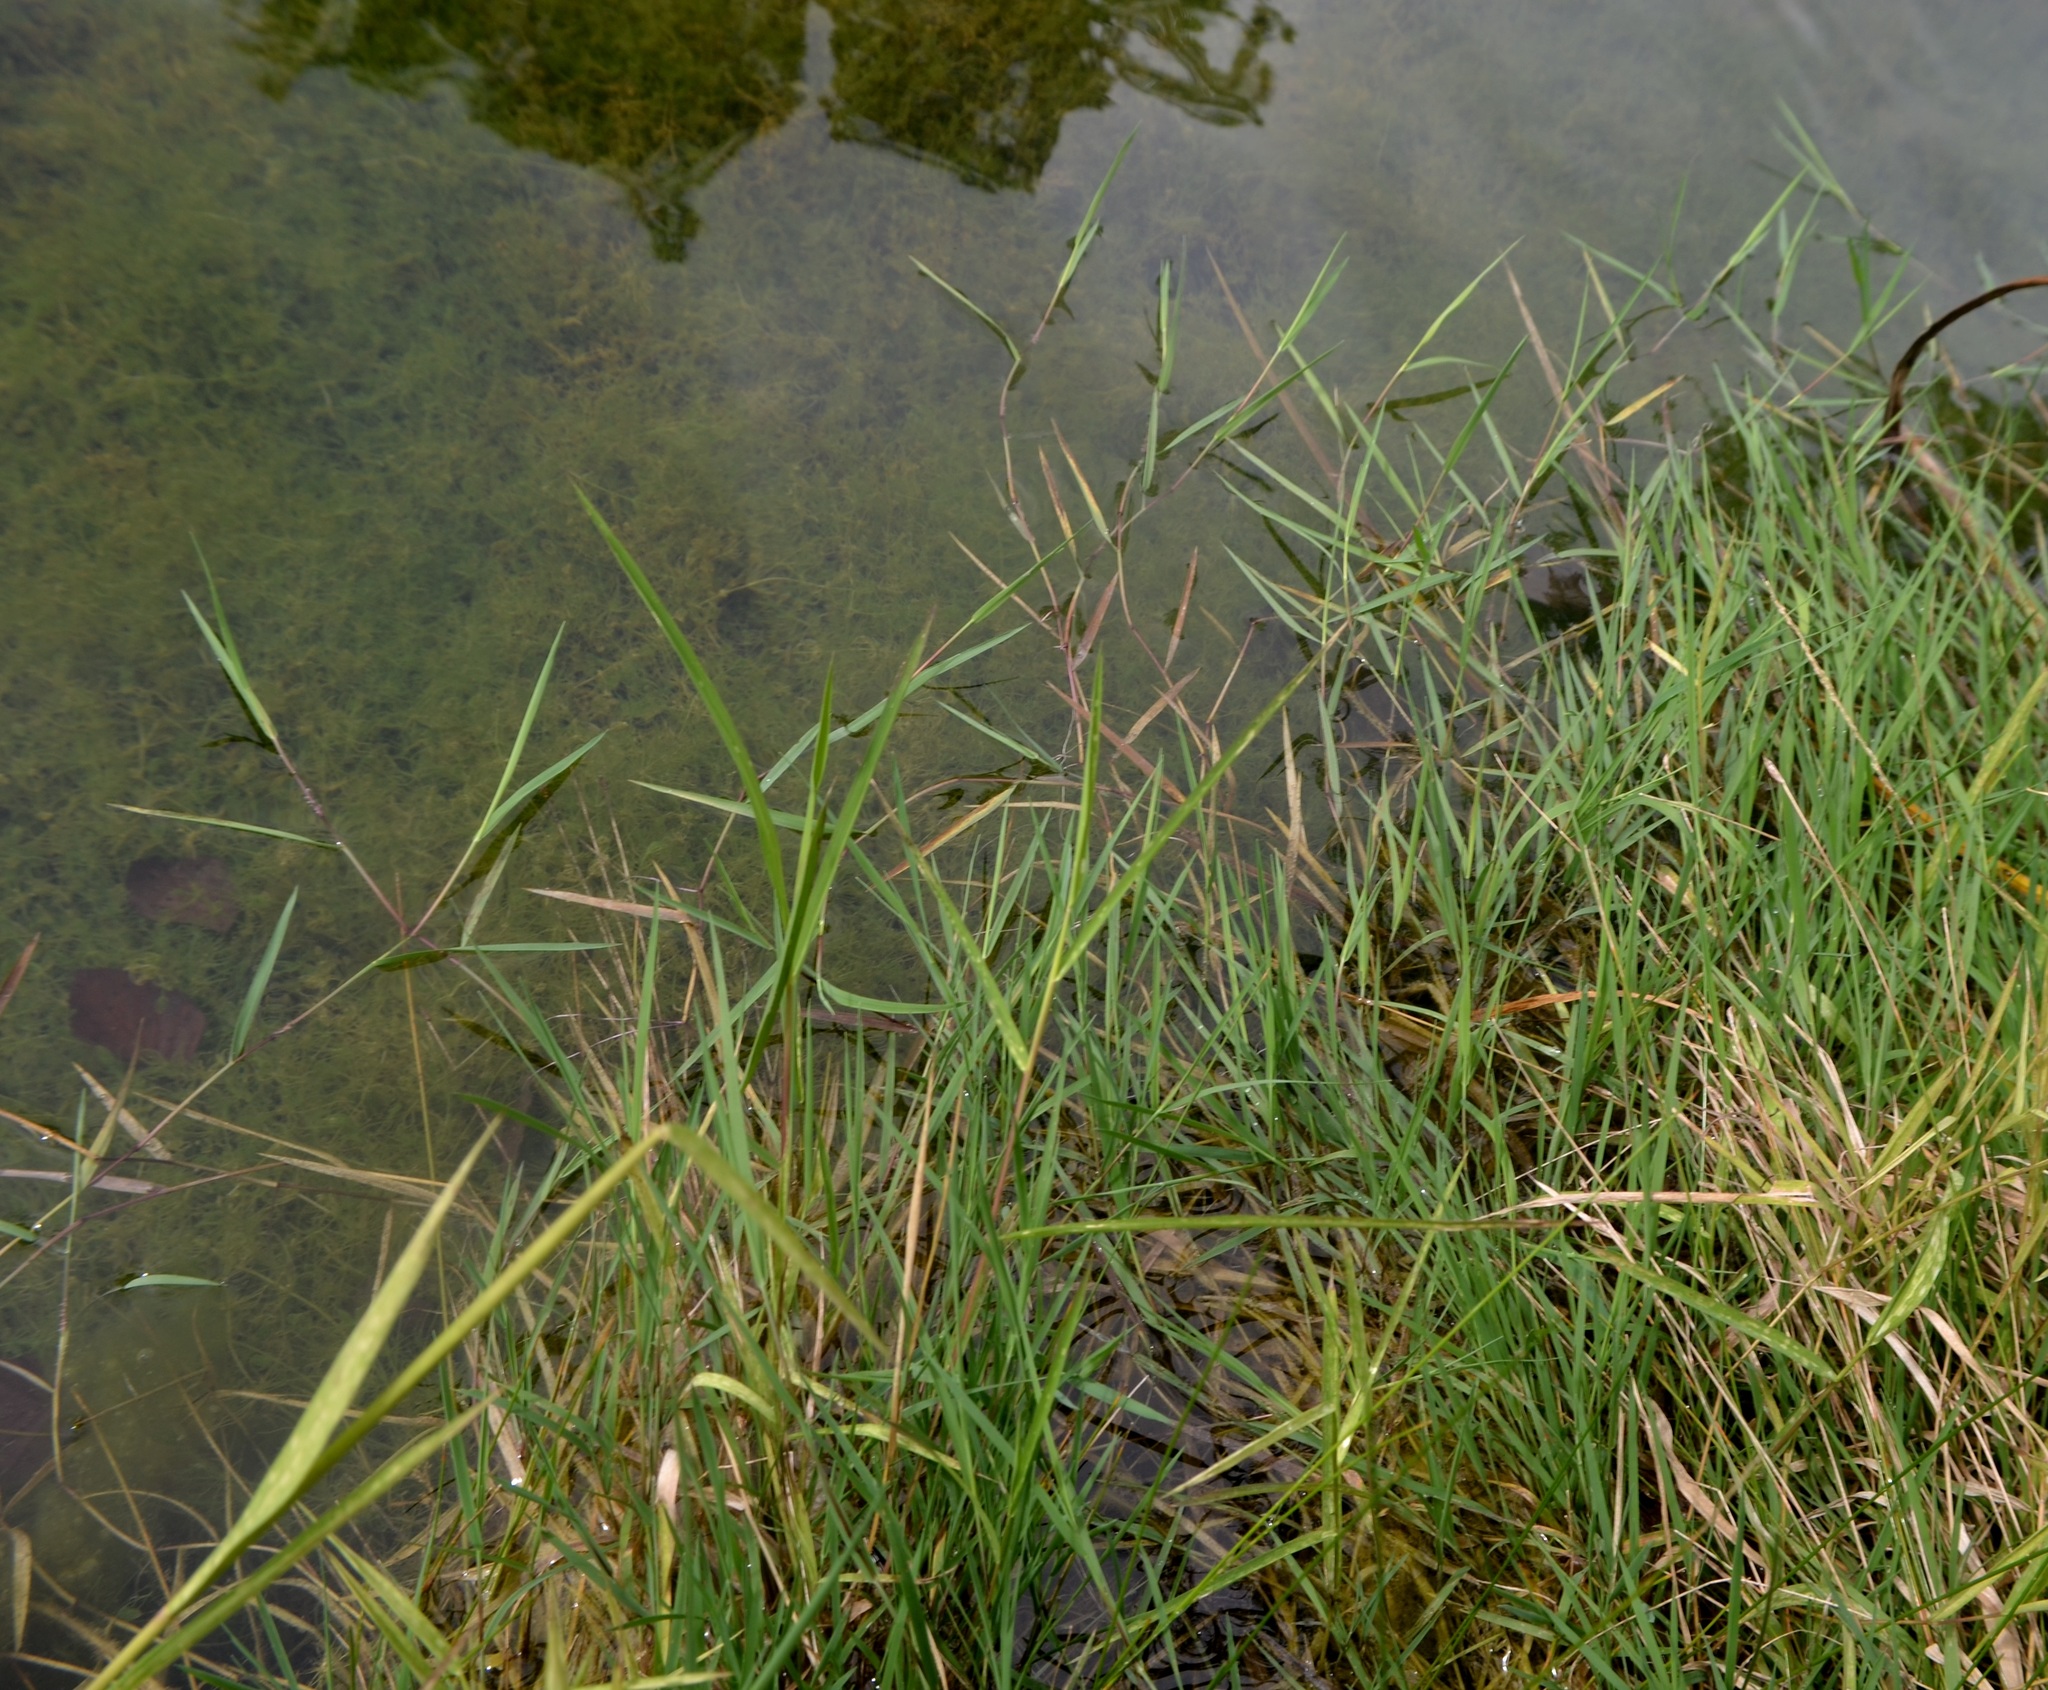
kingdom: Plantae
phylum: Tracheophyta
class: Liliopsida
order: Poales
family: Poaceae
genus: Agrostis
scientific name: Agrostis stolonifera
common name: Creeping bentgrass
